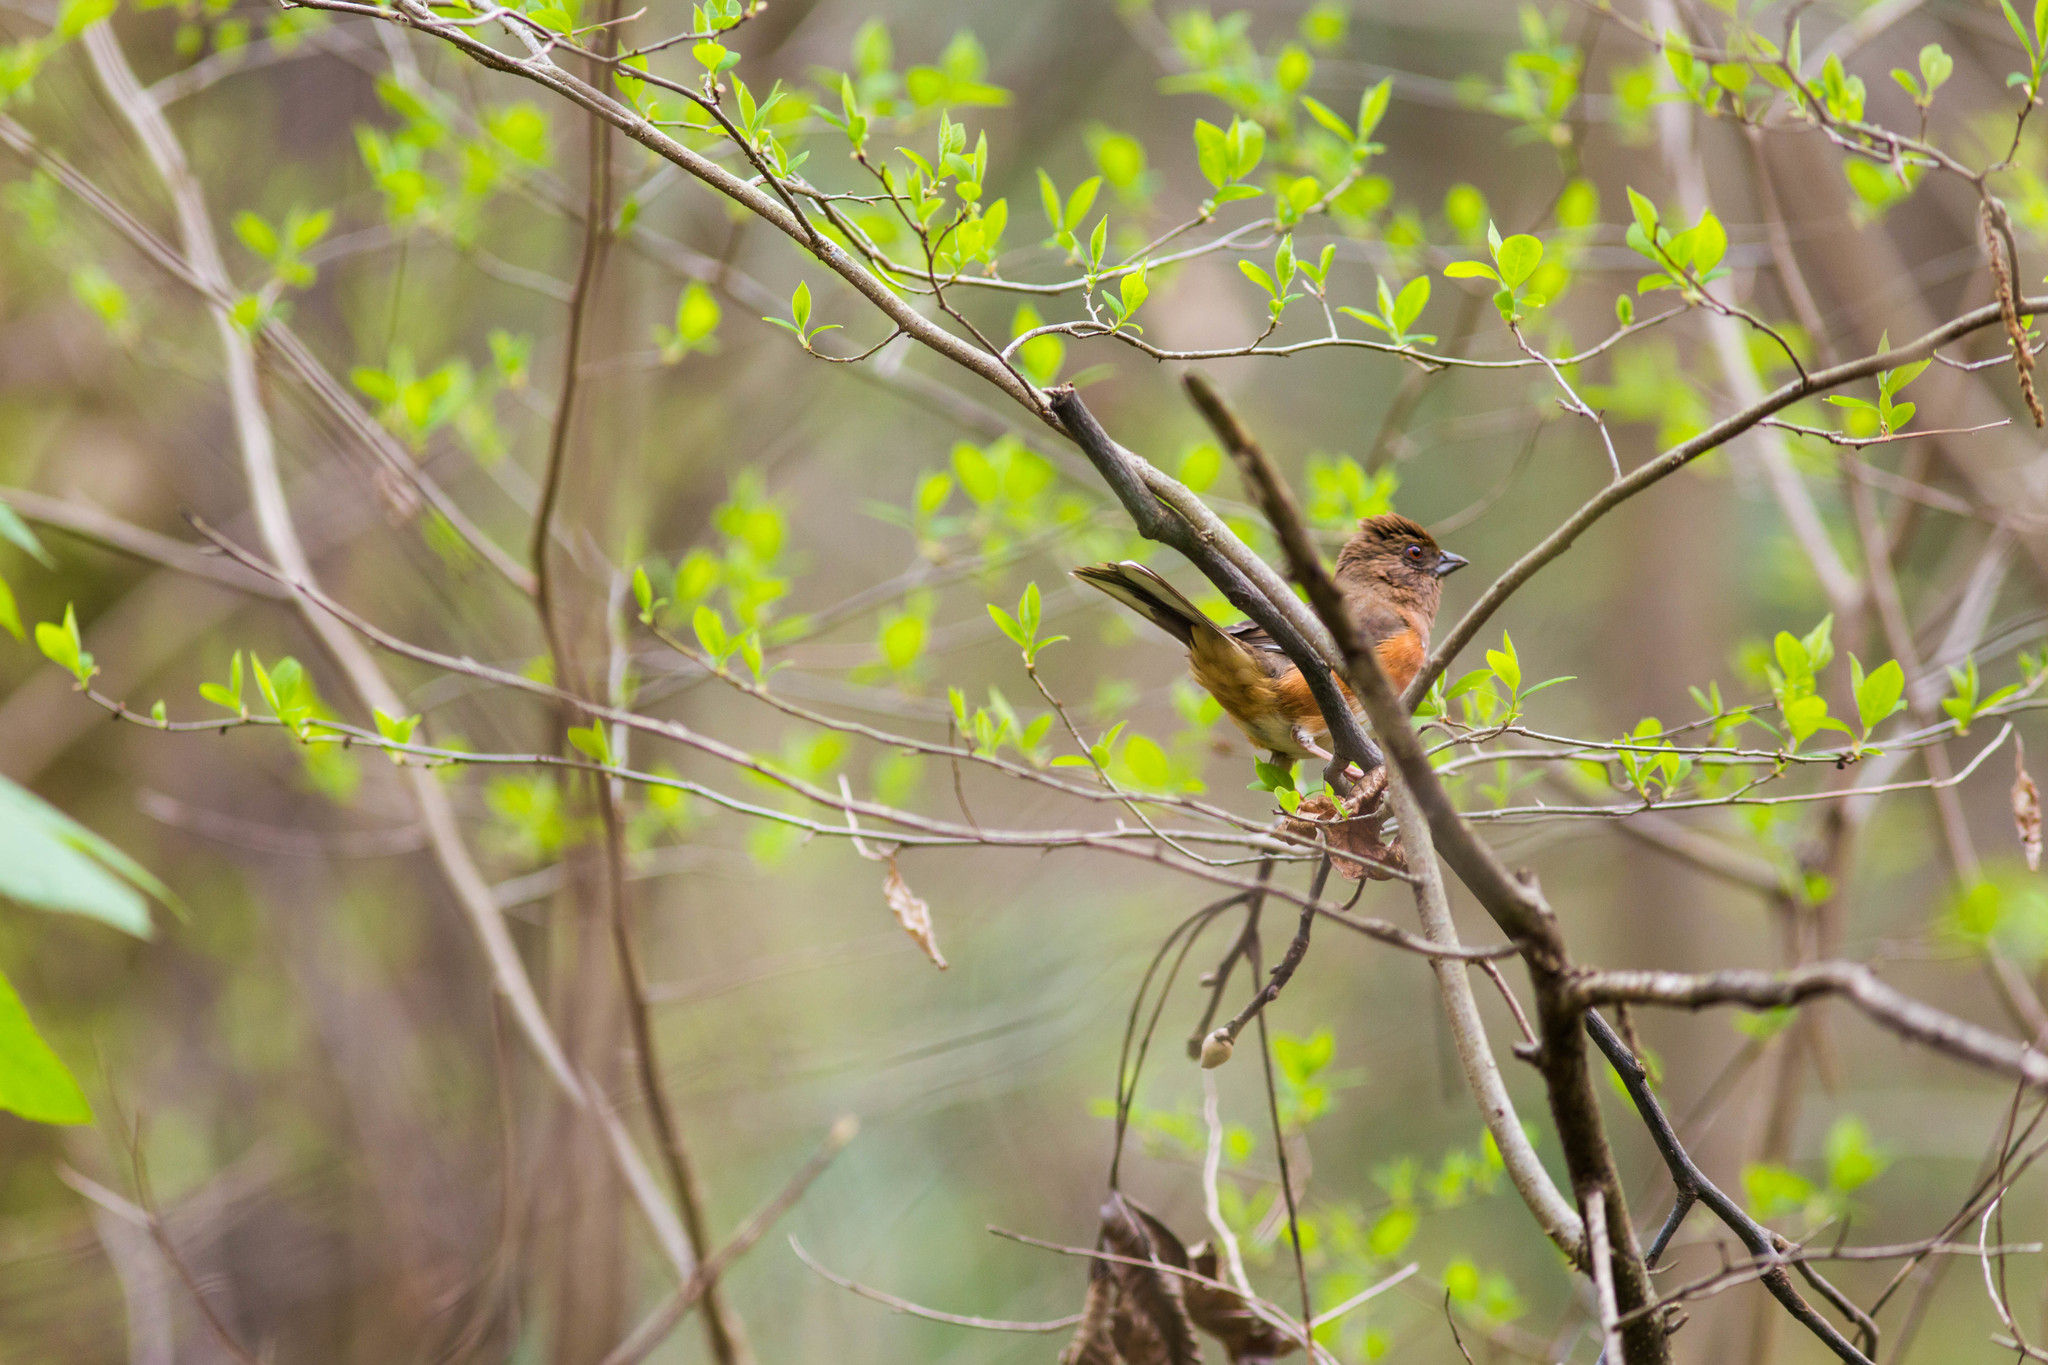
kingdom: Animalia
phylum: Chordata
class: Aves
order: Passeriformes
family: Passerellidae
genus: Pipilo
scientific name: Pipilo erythrophthalmus
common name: Eastern towhee
